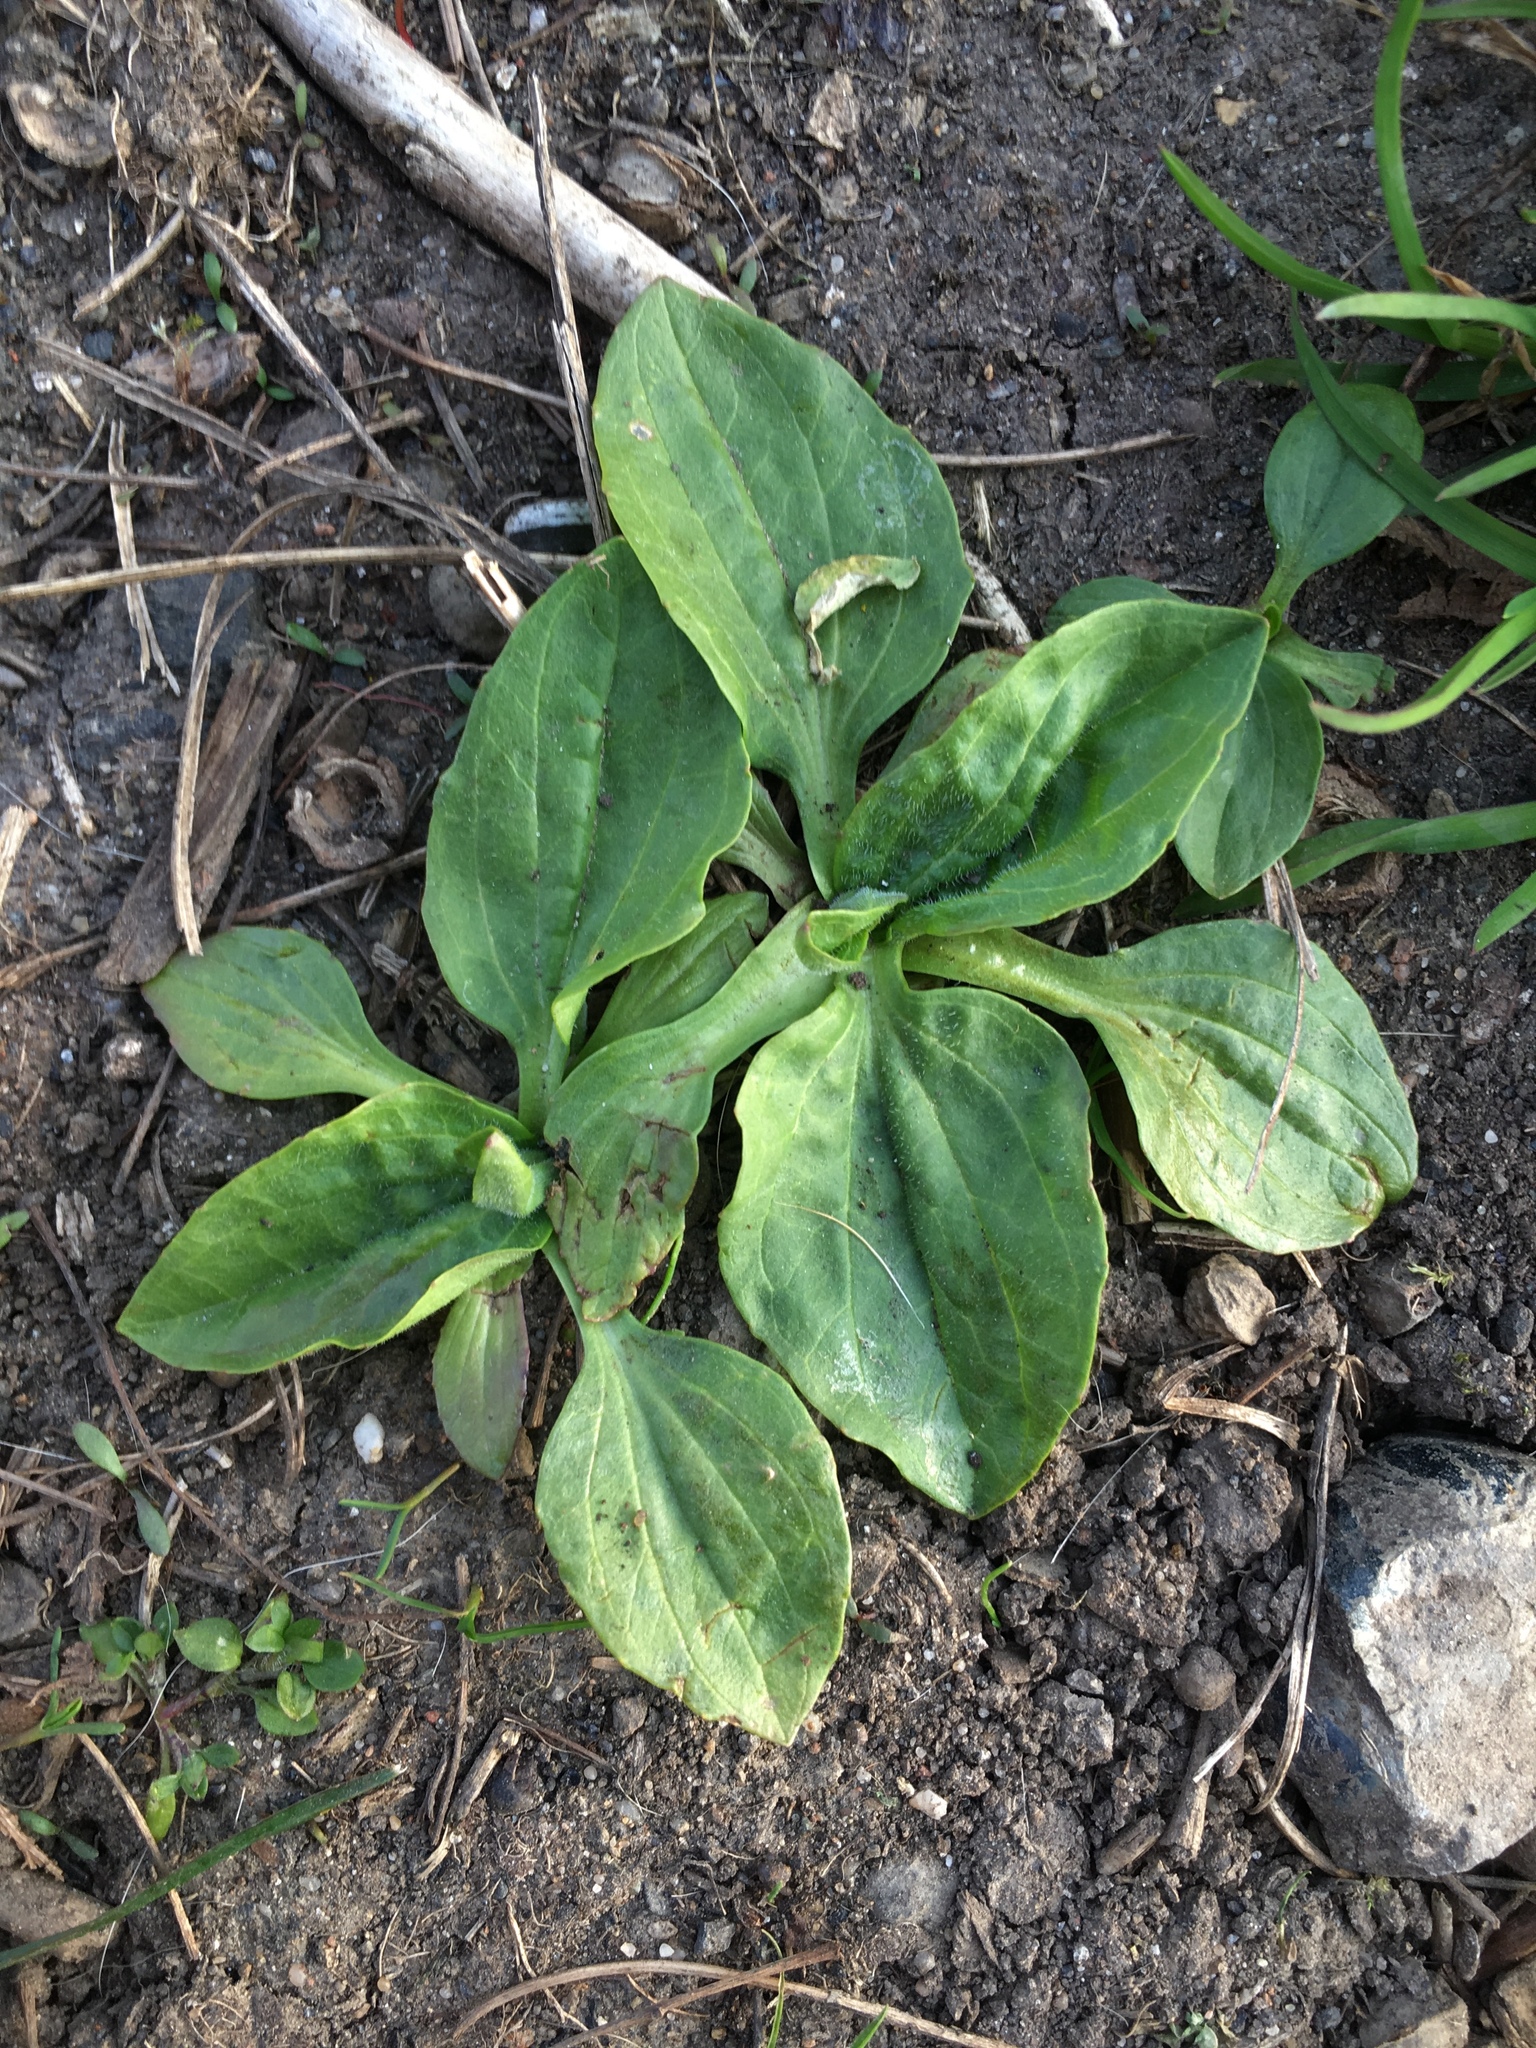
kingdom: Plantae
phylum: Tracheophyta
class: Magnoliopsida
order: Lamiales
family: Plantaginaceae
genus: Plantago
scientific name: Plantago major
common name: Common plantain
